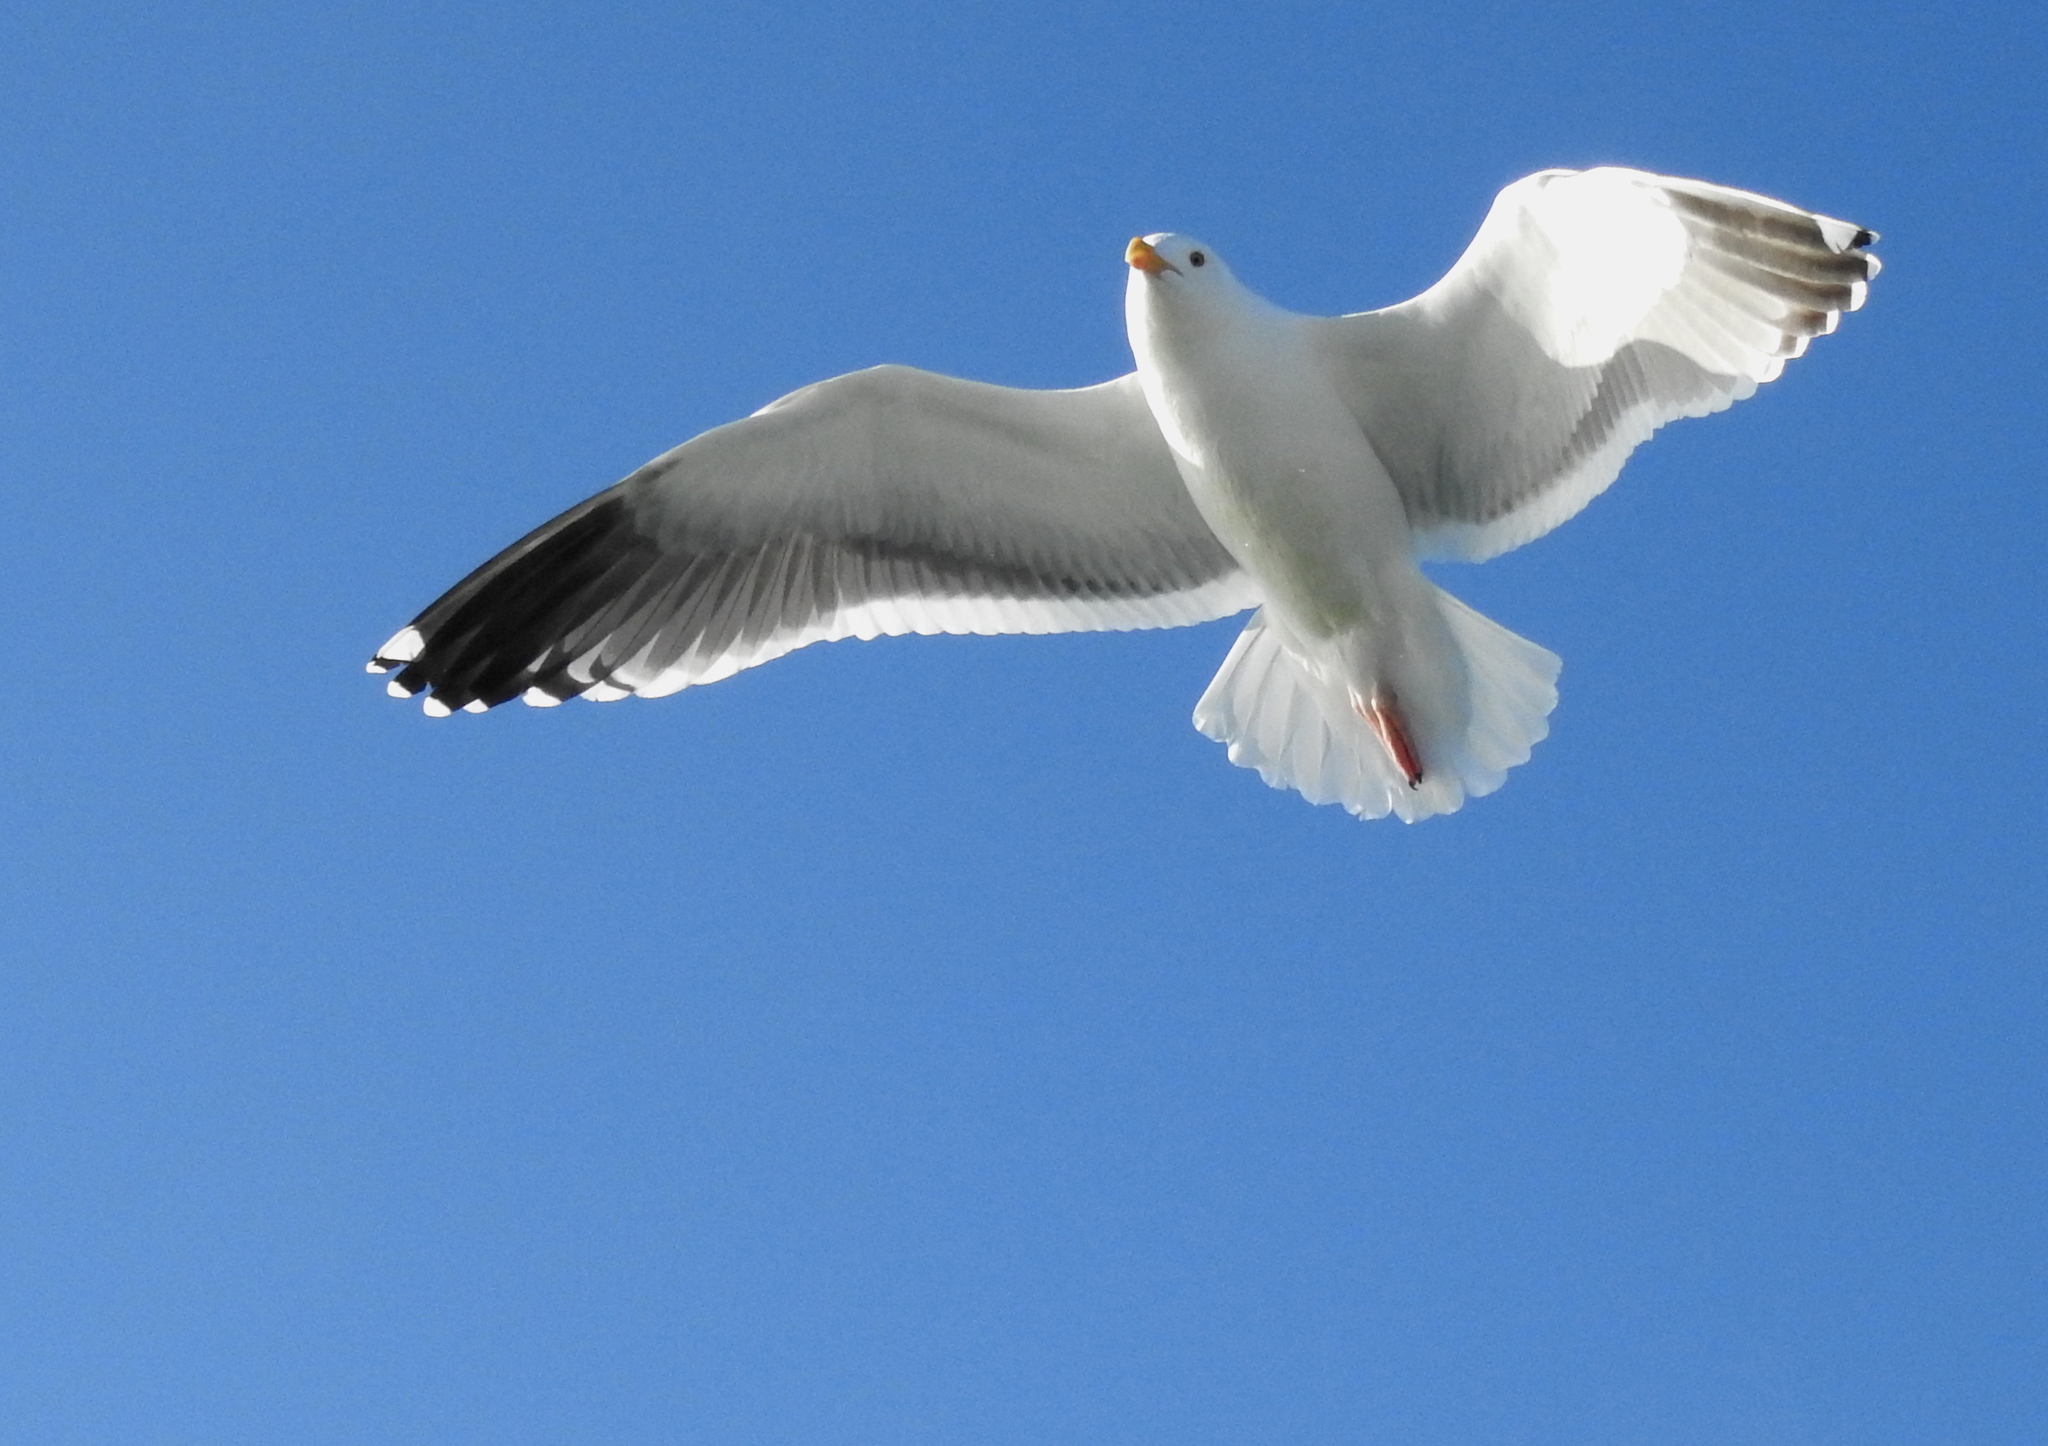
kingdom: Animalia
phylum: Chordata
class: Aves
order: Charadriiformes
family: Laridae
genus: Larus
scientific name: Larus occidentalis
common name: Western gull
